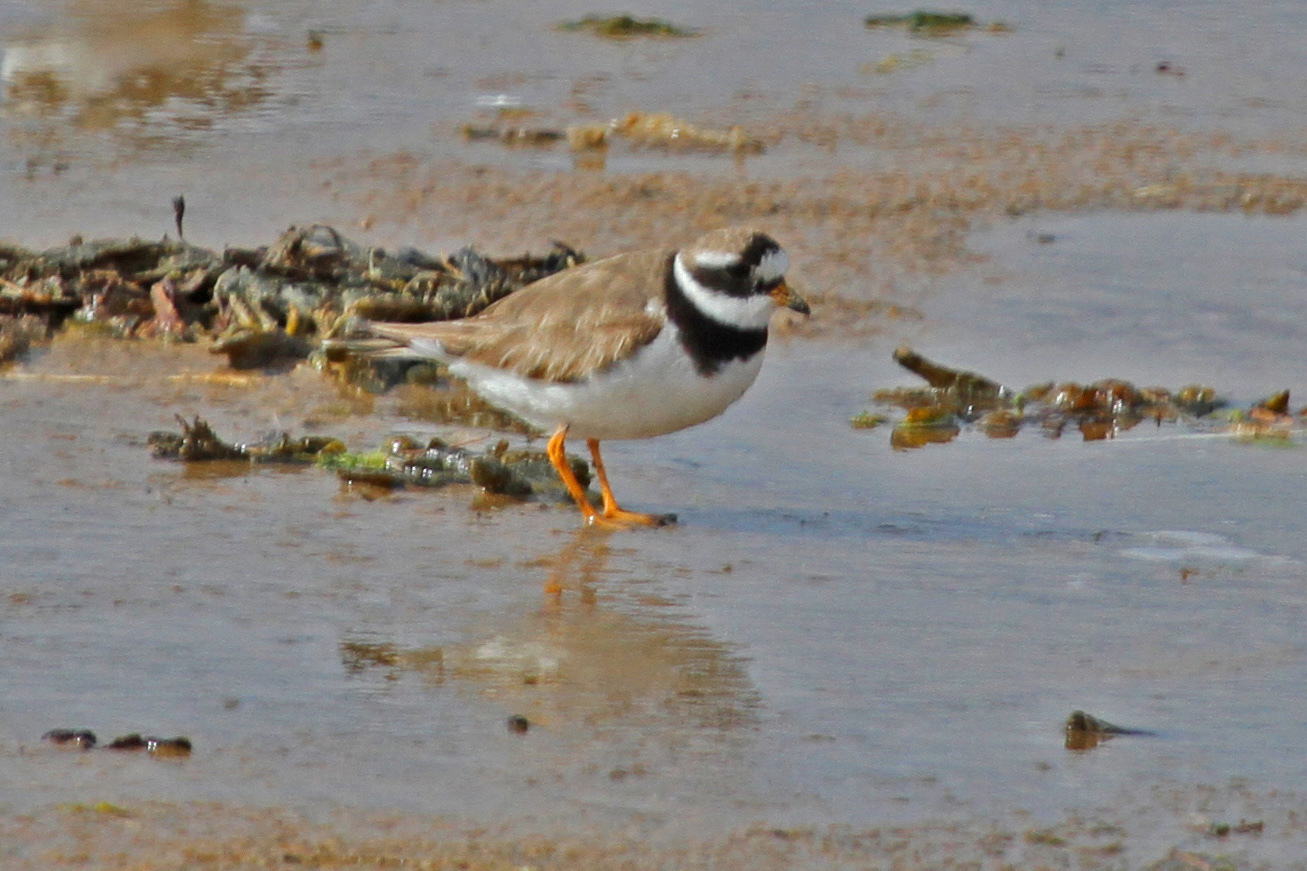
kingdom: Animalia
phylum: Chordata
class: Aves
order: Charadriiformes
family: Charadriidae
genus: Charadrius
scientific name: Charadrius hiaticula
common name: Common ringed plover
